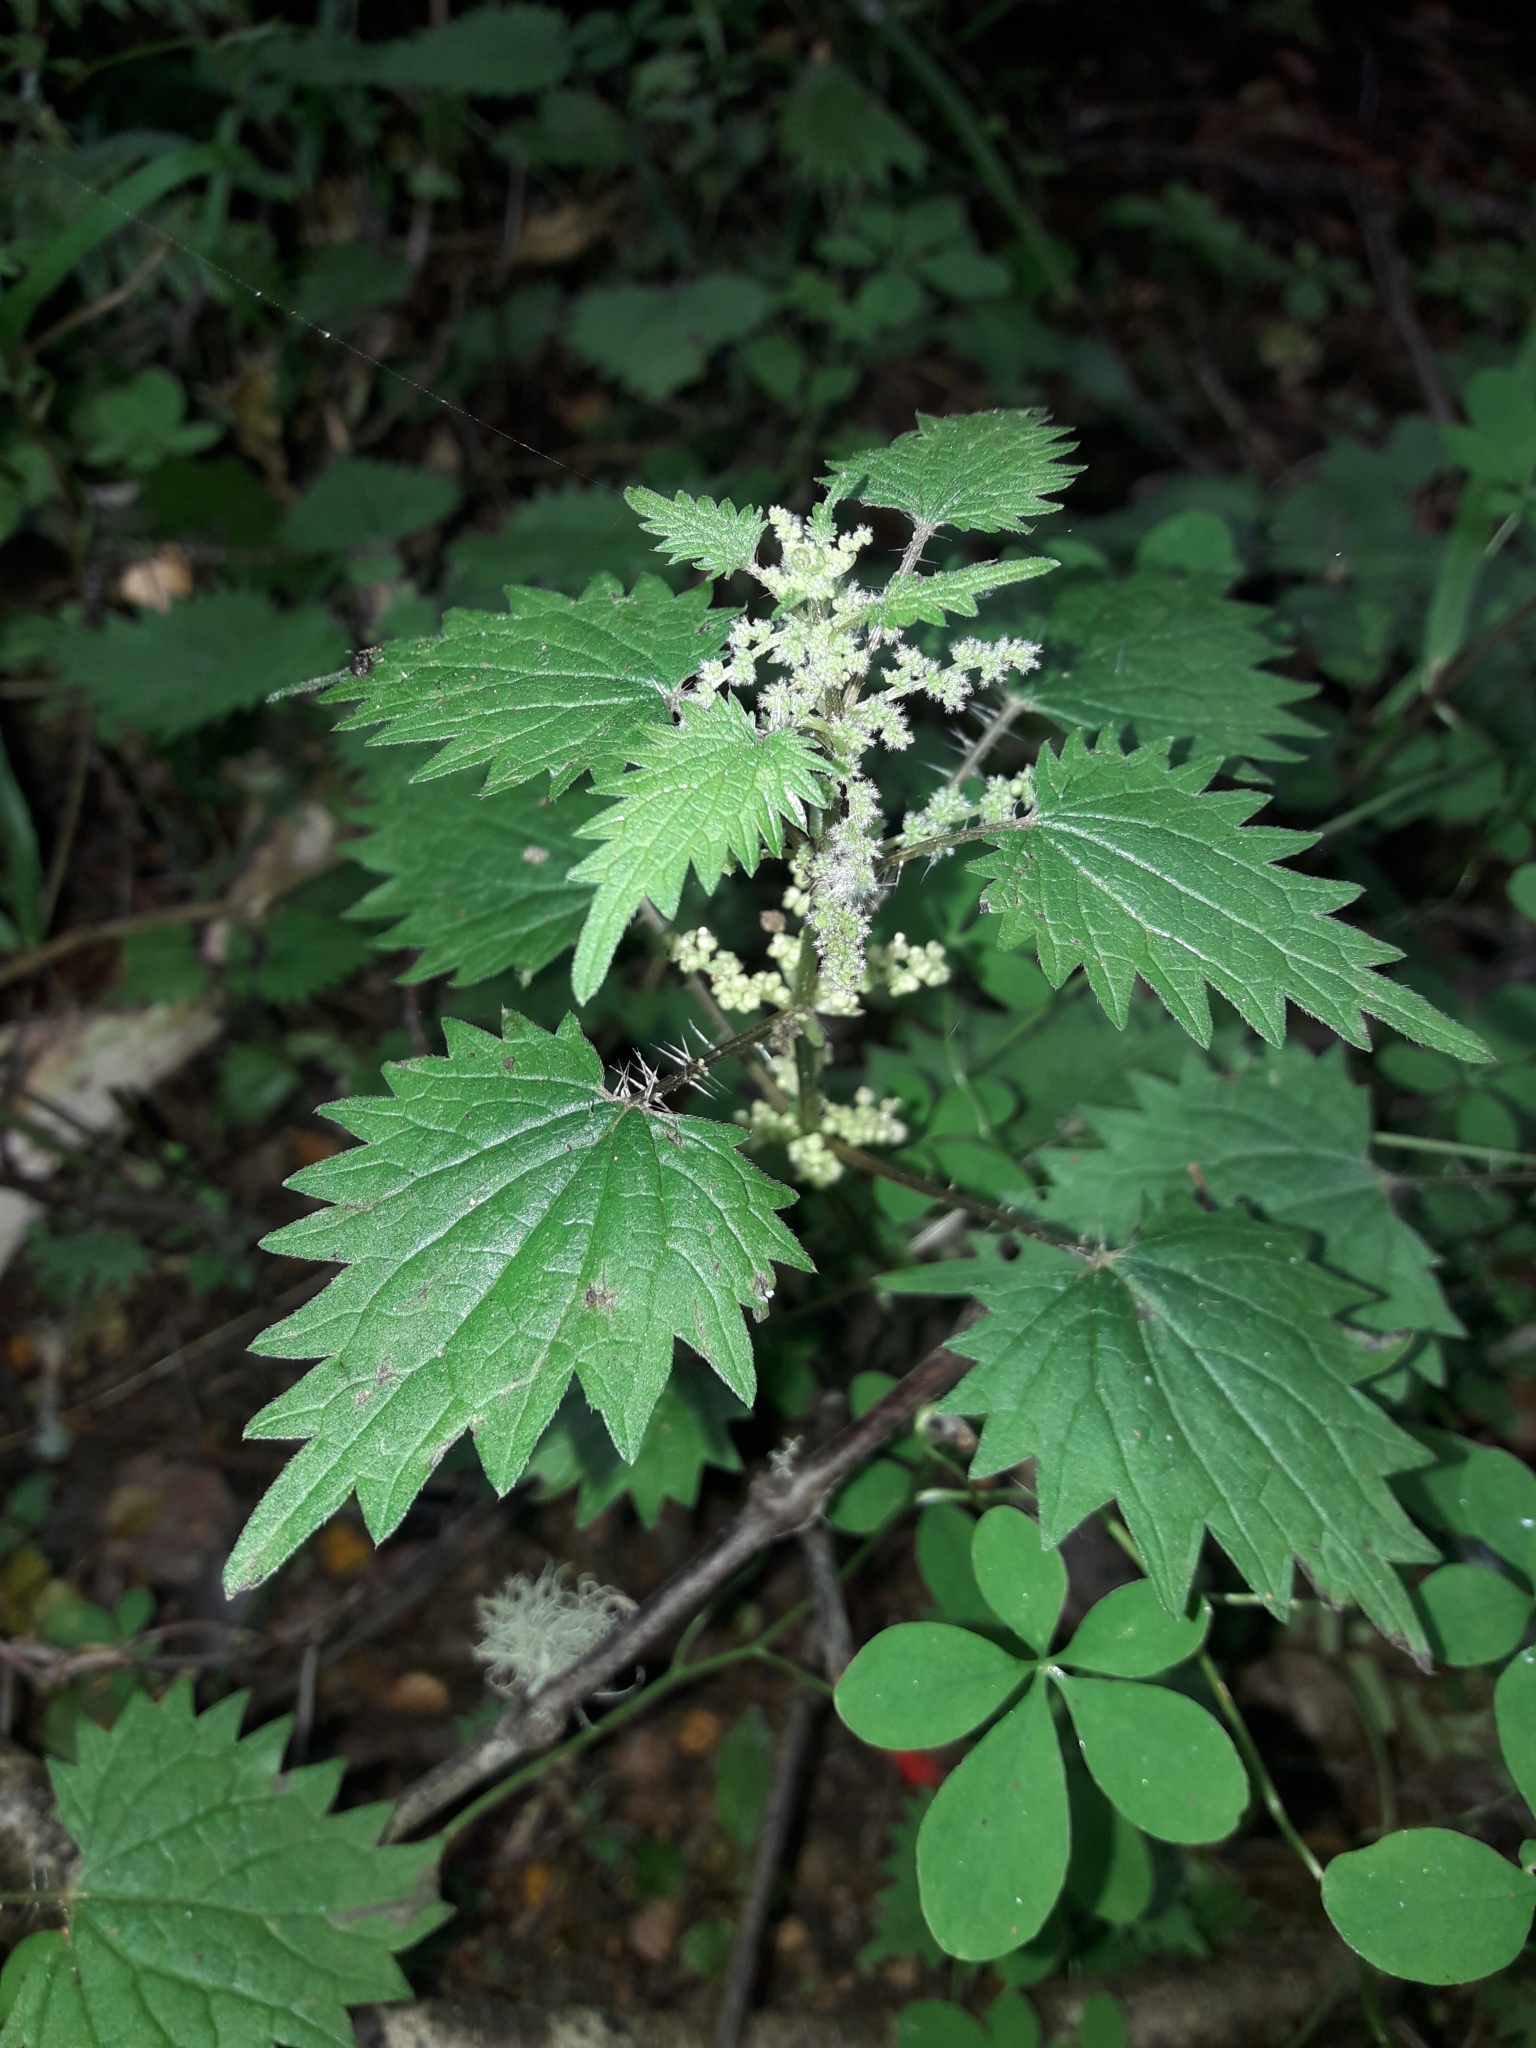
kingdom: Plantae
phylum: Tracheophyta
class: Magnoliopsida
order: Rosales
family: Urticaceae
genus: Urtica
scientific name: Urtica sykesii
